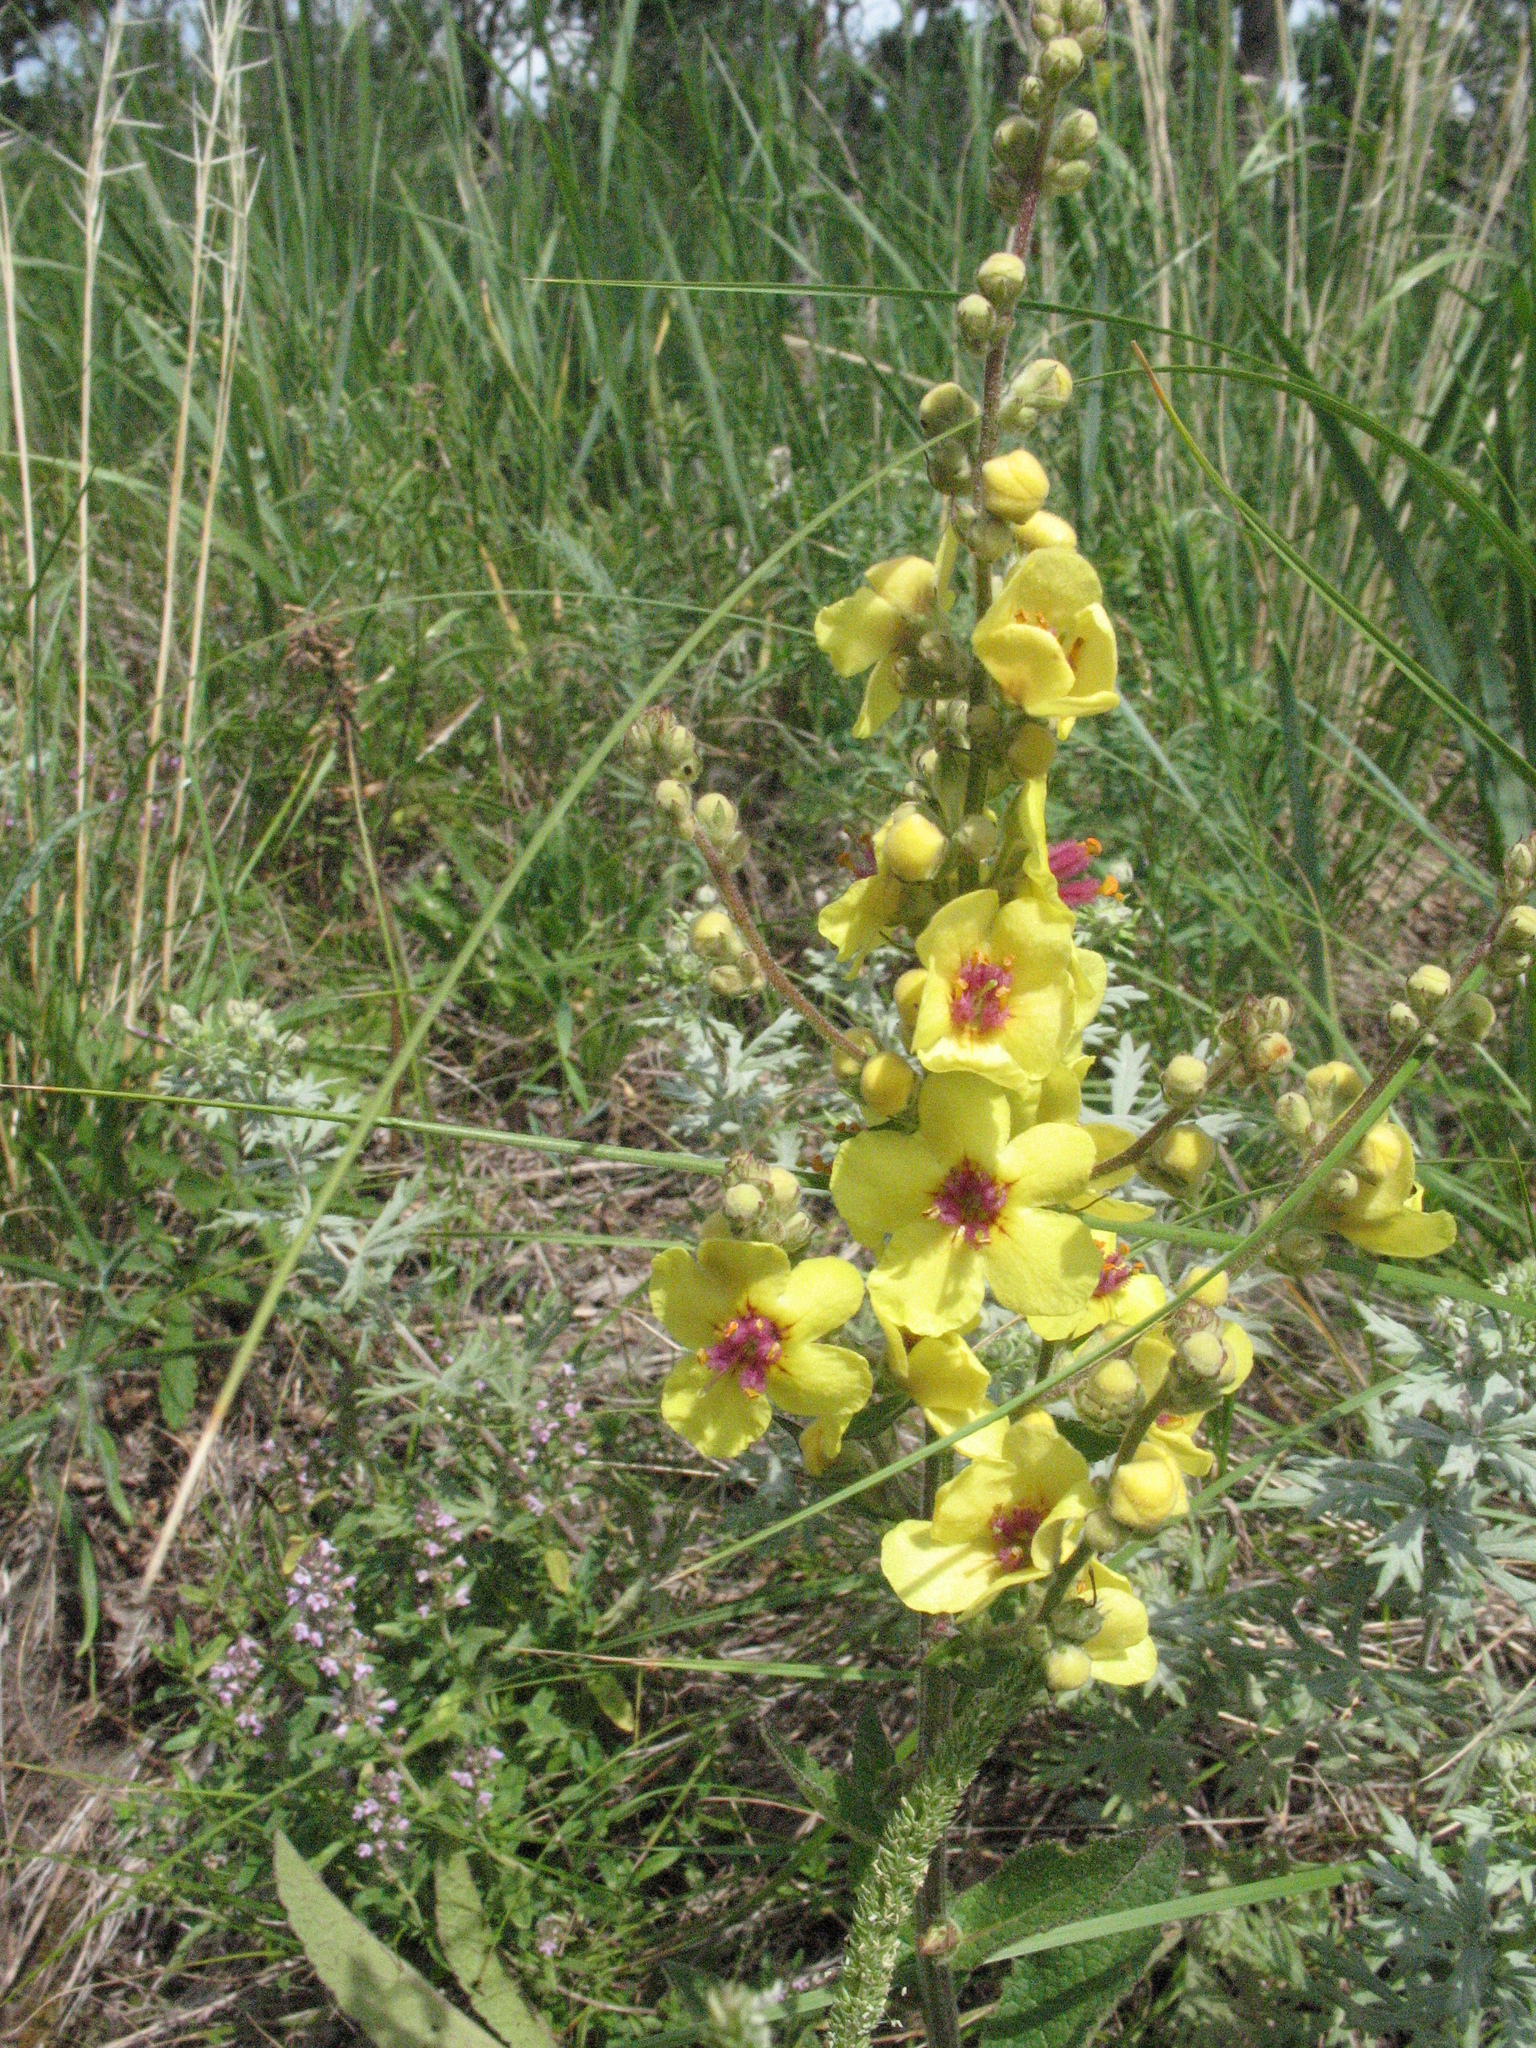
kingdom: Plantae
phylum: Tracheophyta
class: Magnoliopsida
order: Lamiales
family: Scrophulariaceae
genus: Verbascum
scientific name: Verbascum chaixii
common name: Nettle-leaved mullein
